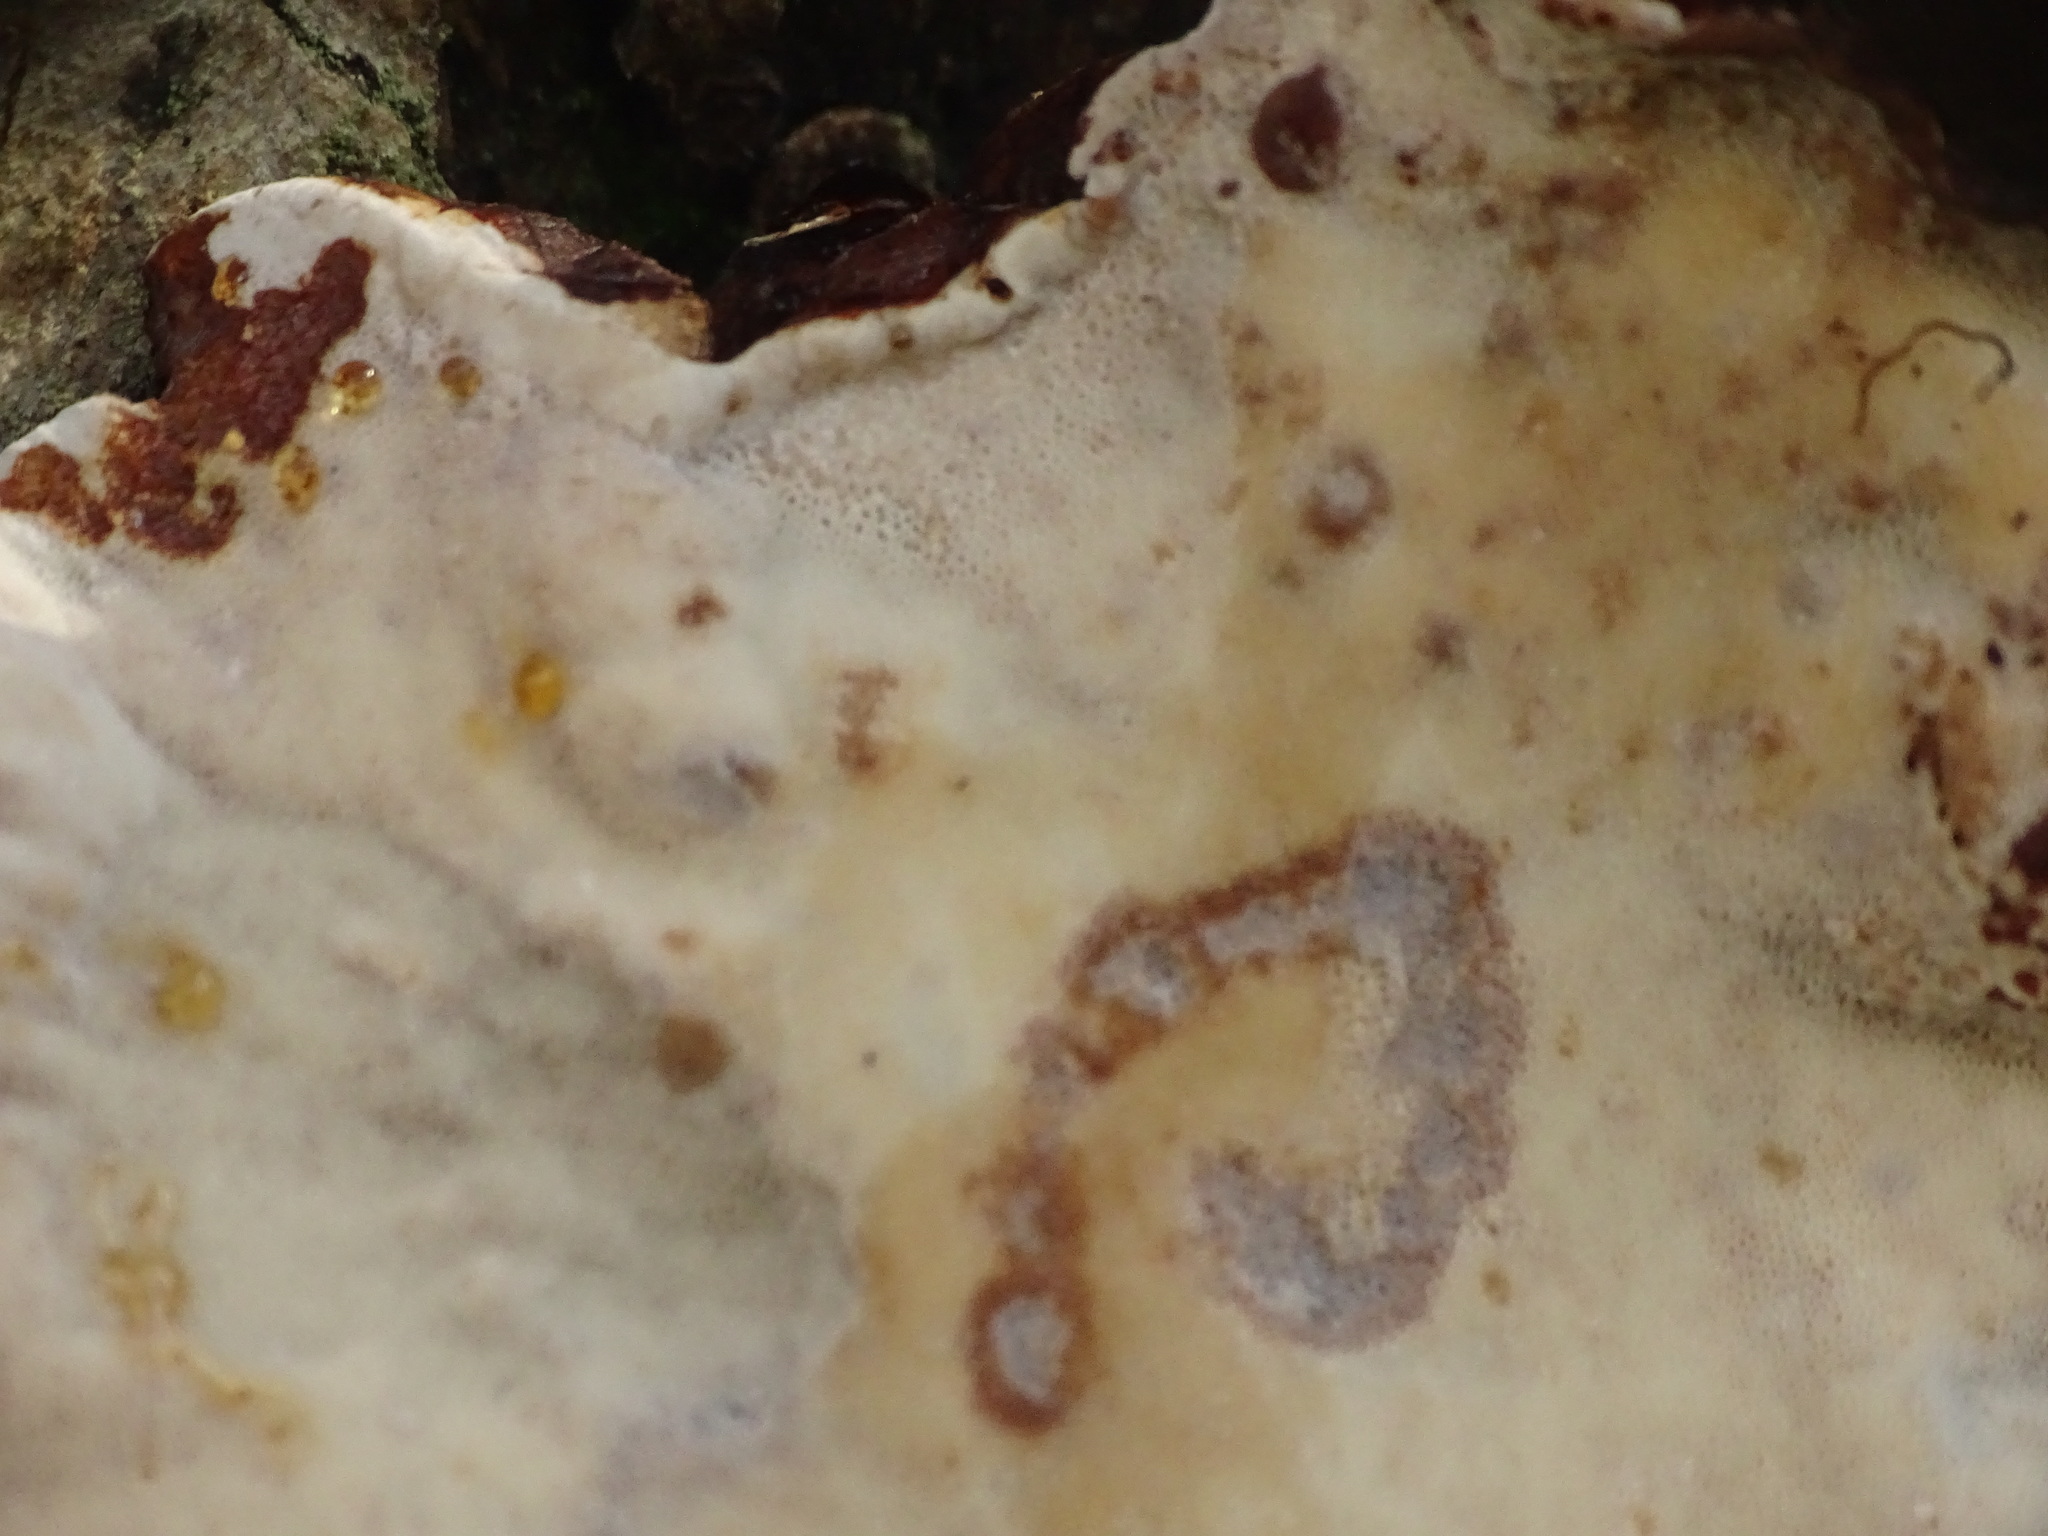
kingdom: Fungi
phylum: Basidiomycota
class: Agaricomycetes
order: Polyporales
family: Ischnodermataceae
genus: Ischnoderma
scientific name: Ischnoderma resinosum
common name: Resinous polypore
